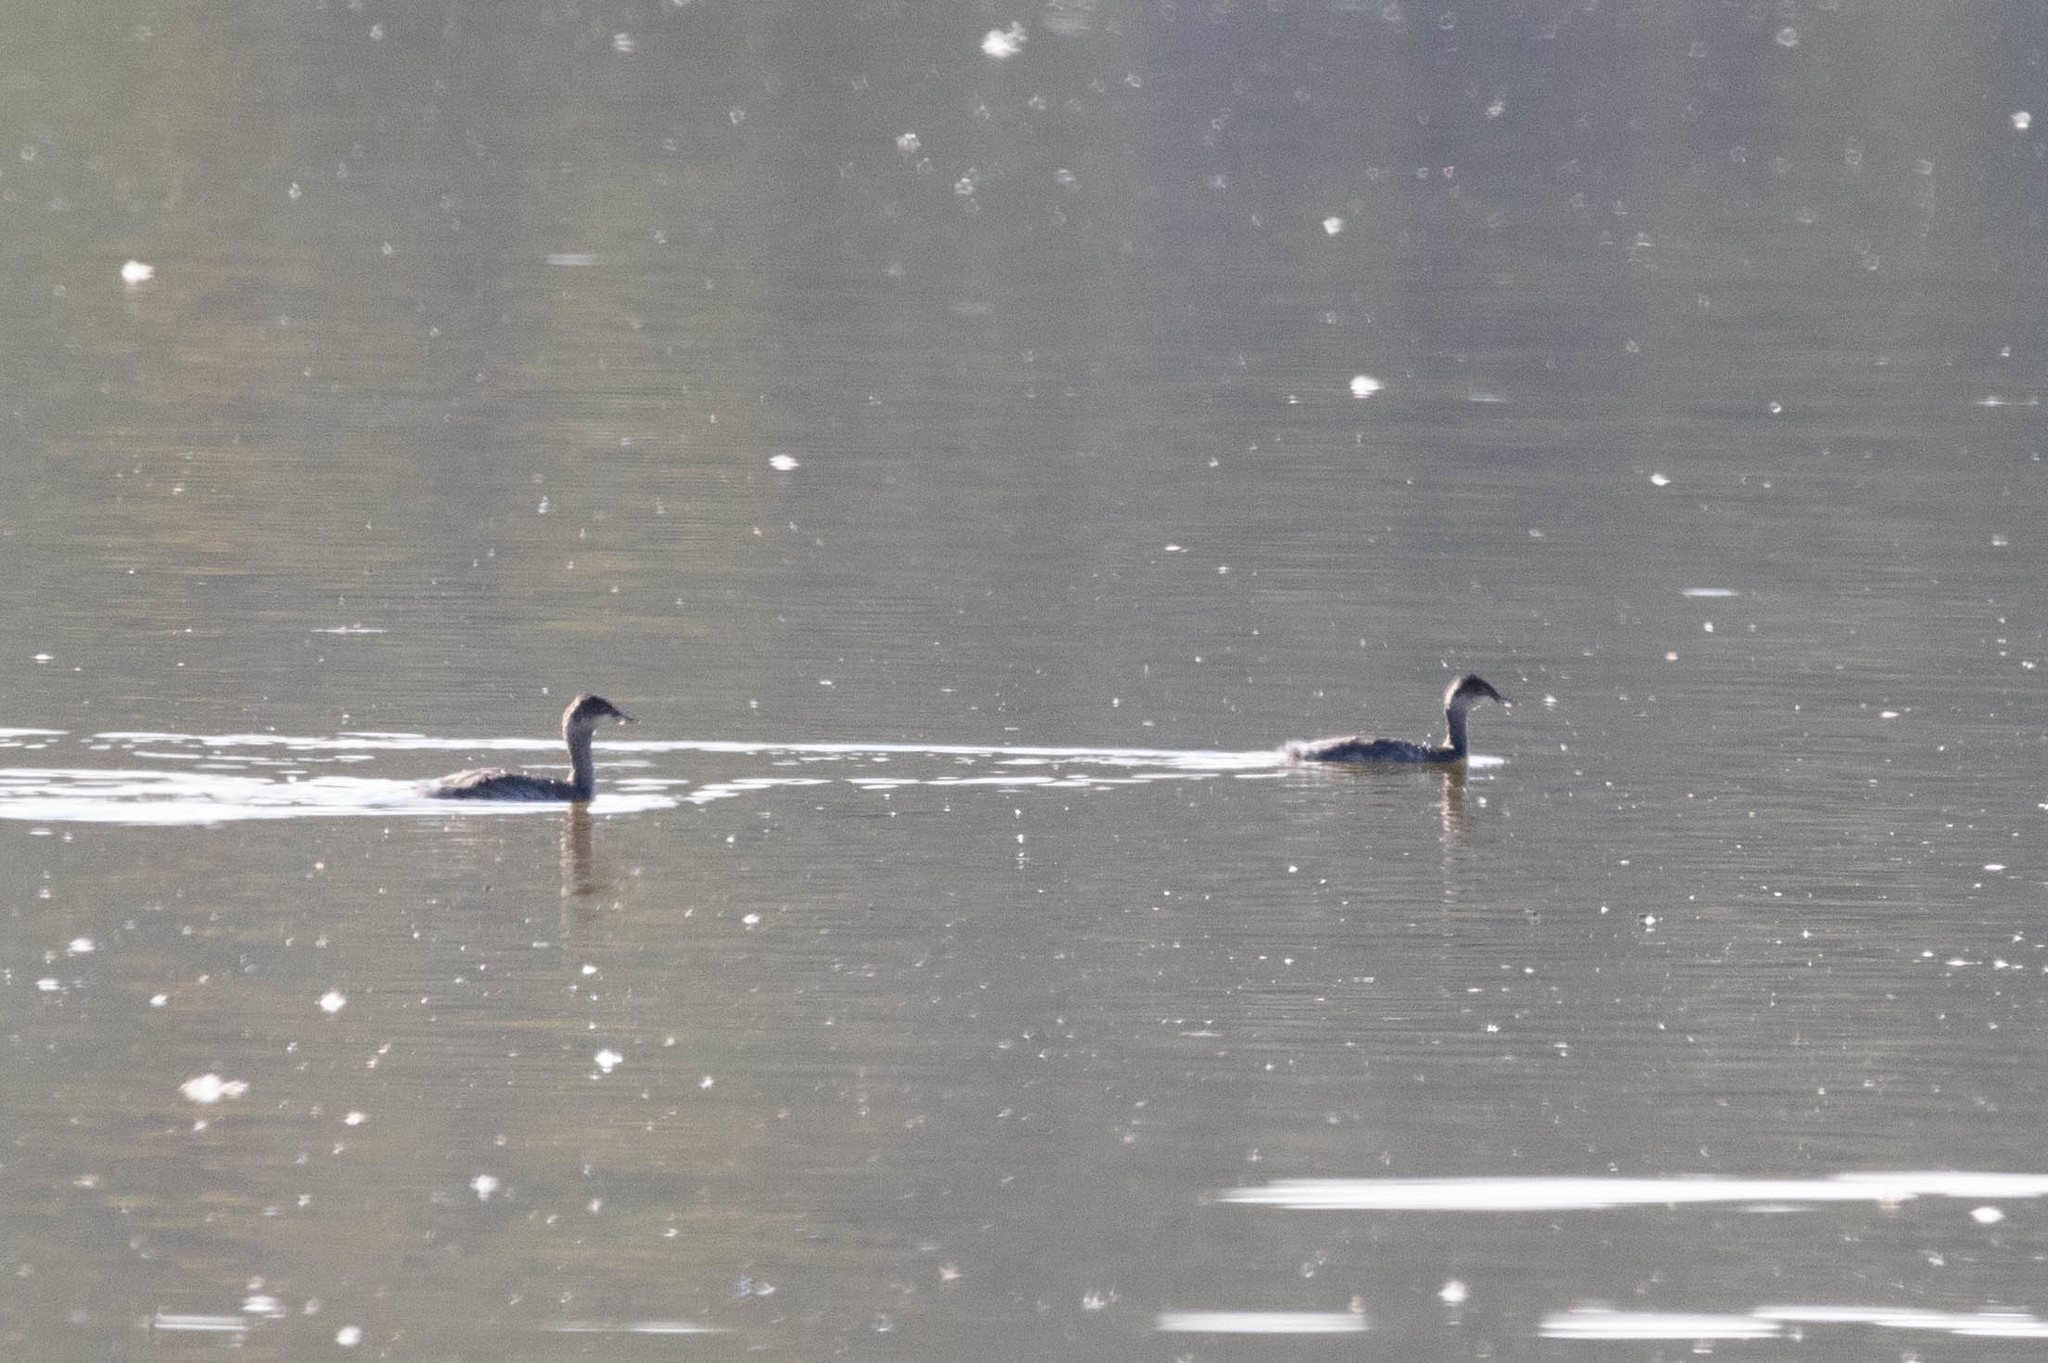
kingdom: Animalia
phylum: Chordata
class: Aves
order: Podicipediformes
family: Podicipedidae
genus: Podiceps
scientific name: Podiceps auritus
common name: Horned grebe
